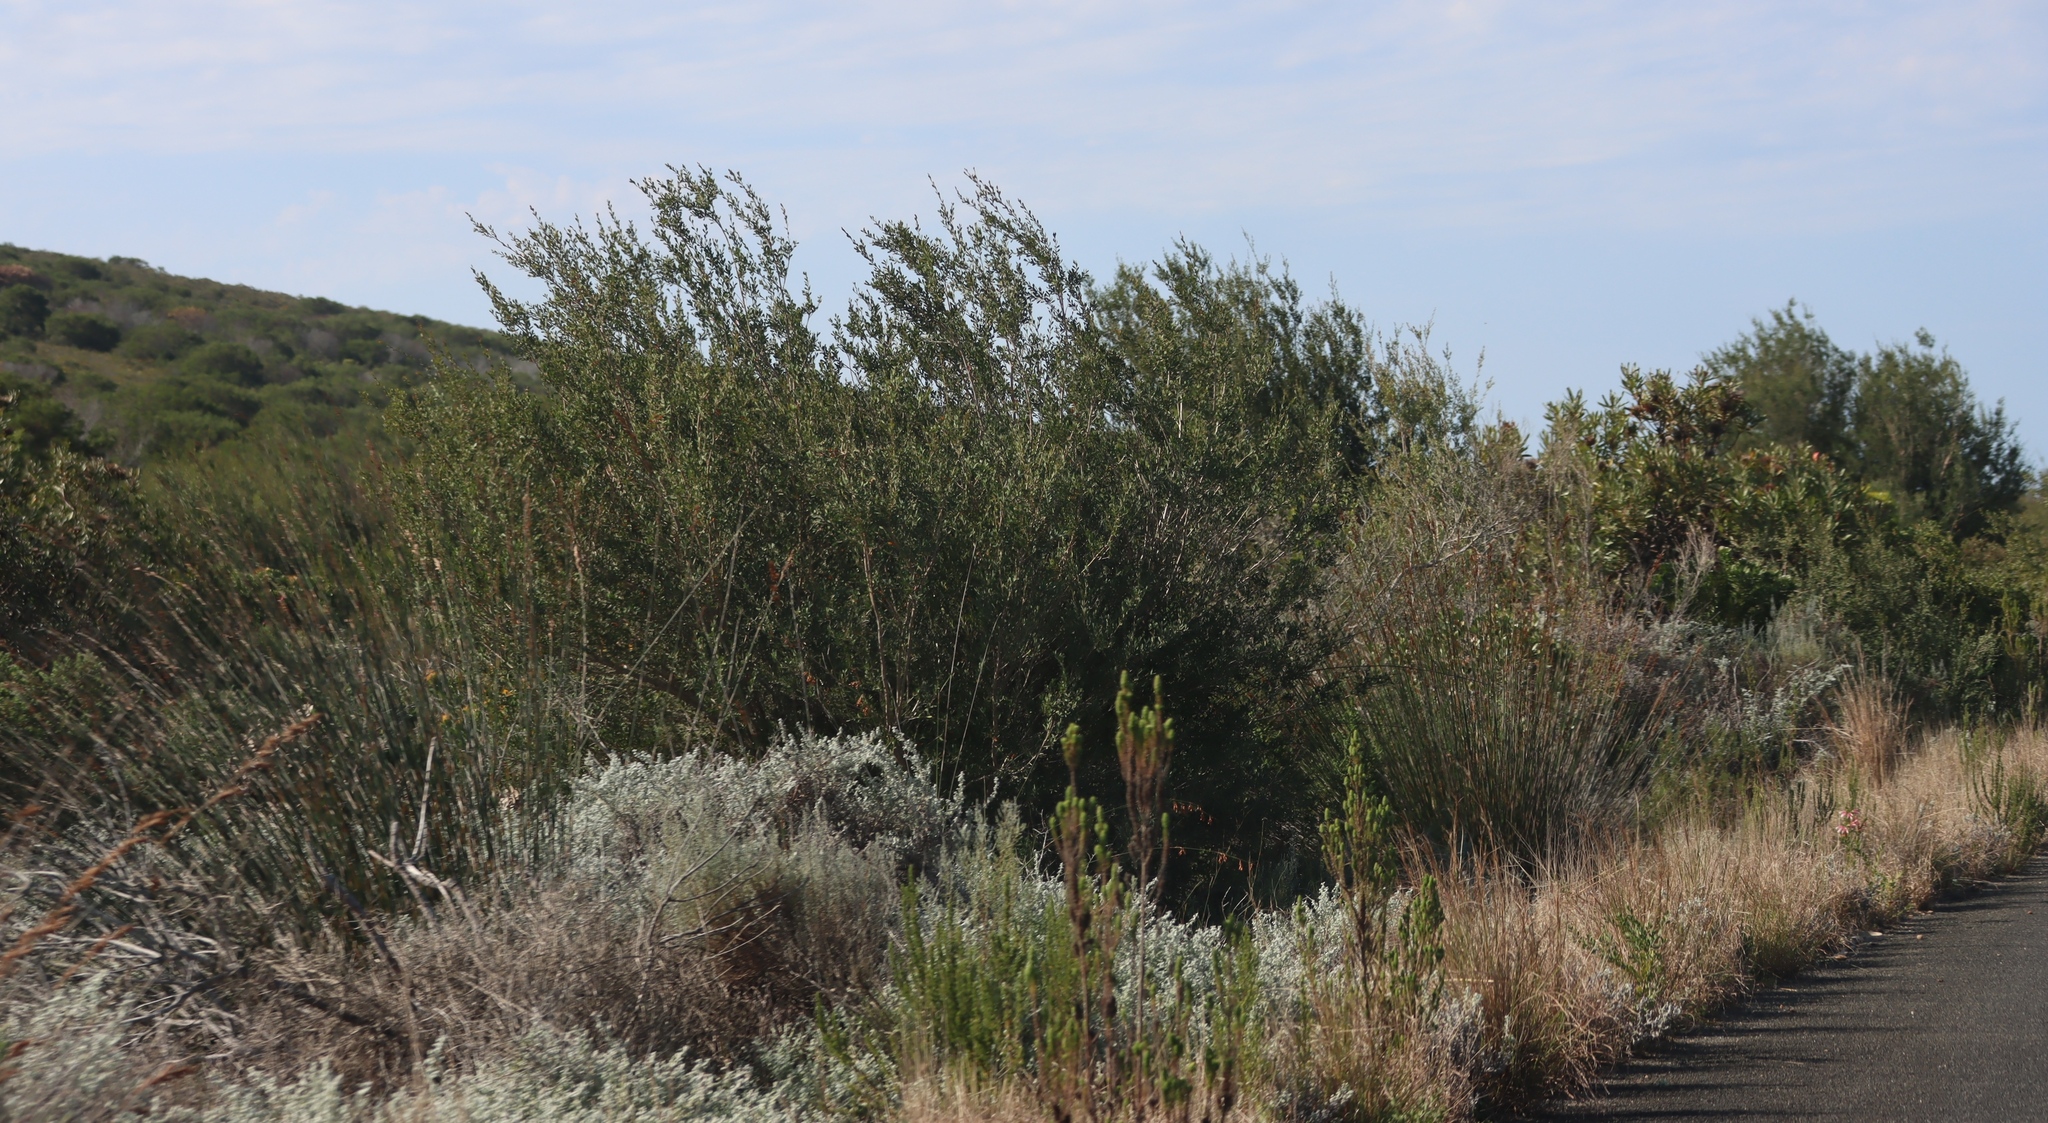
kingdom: Plantae
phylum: Tracheophyta
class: Magnoliopsida
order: Myrtales
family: Myrtaceae
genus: Leptospermum
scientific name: Leptospermum laevigatum
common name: Australian teatree
